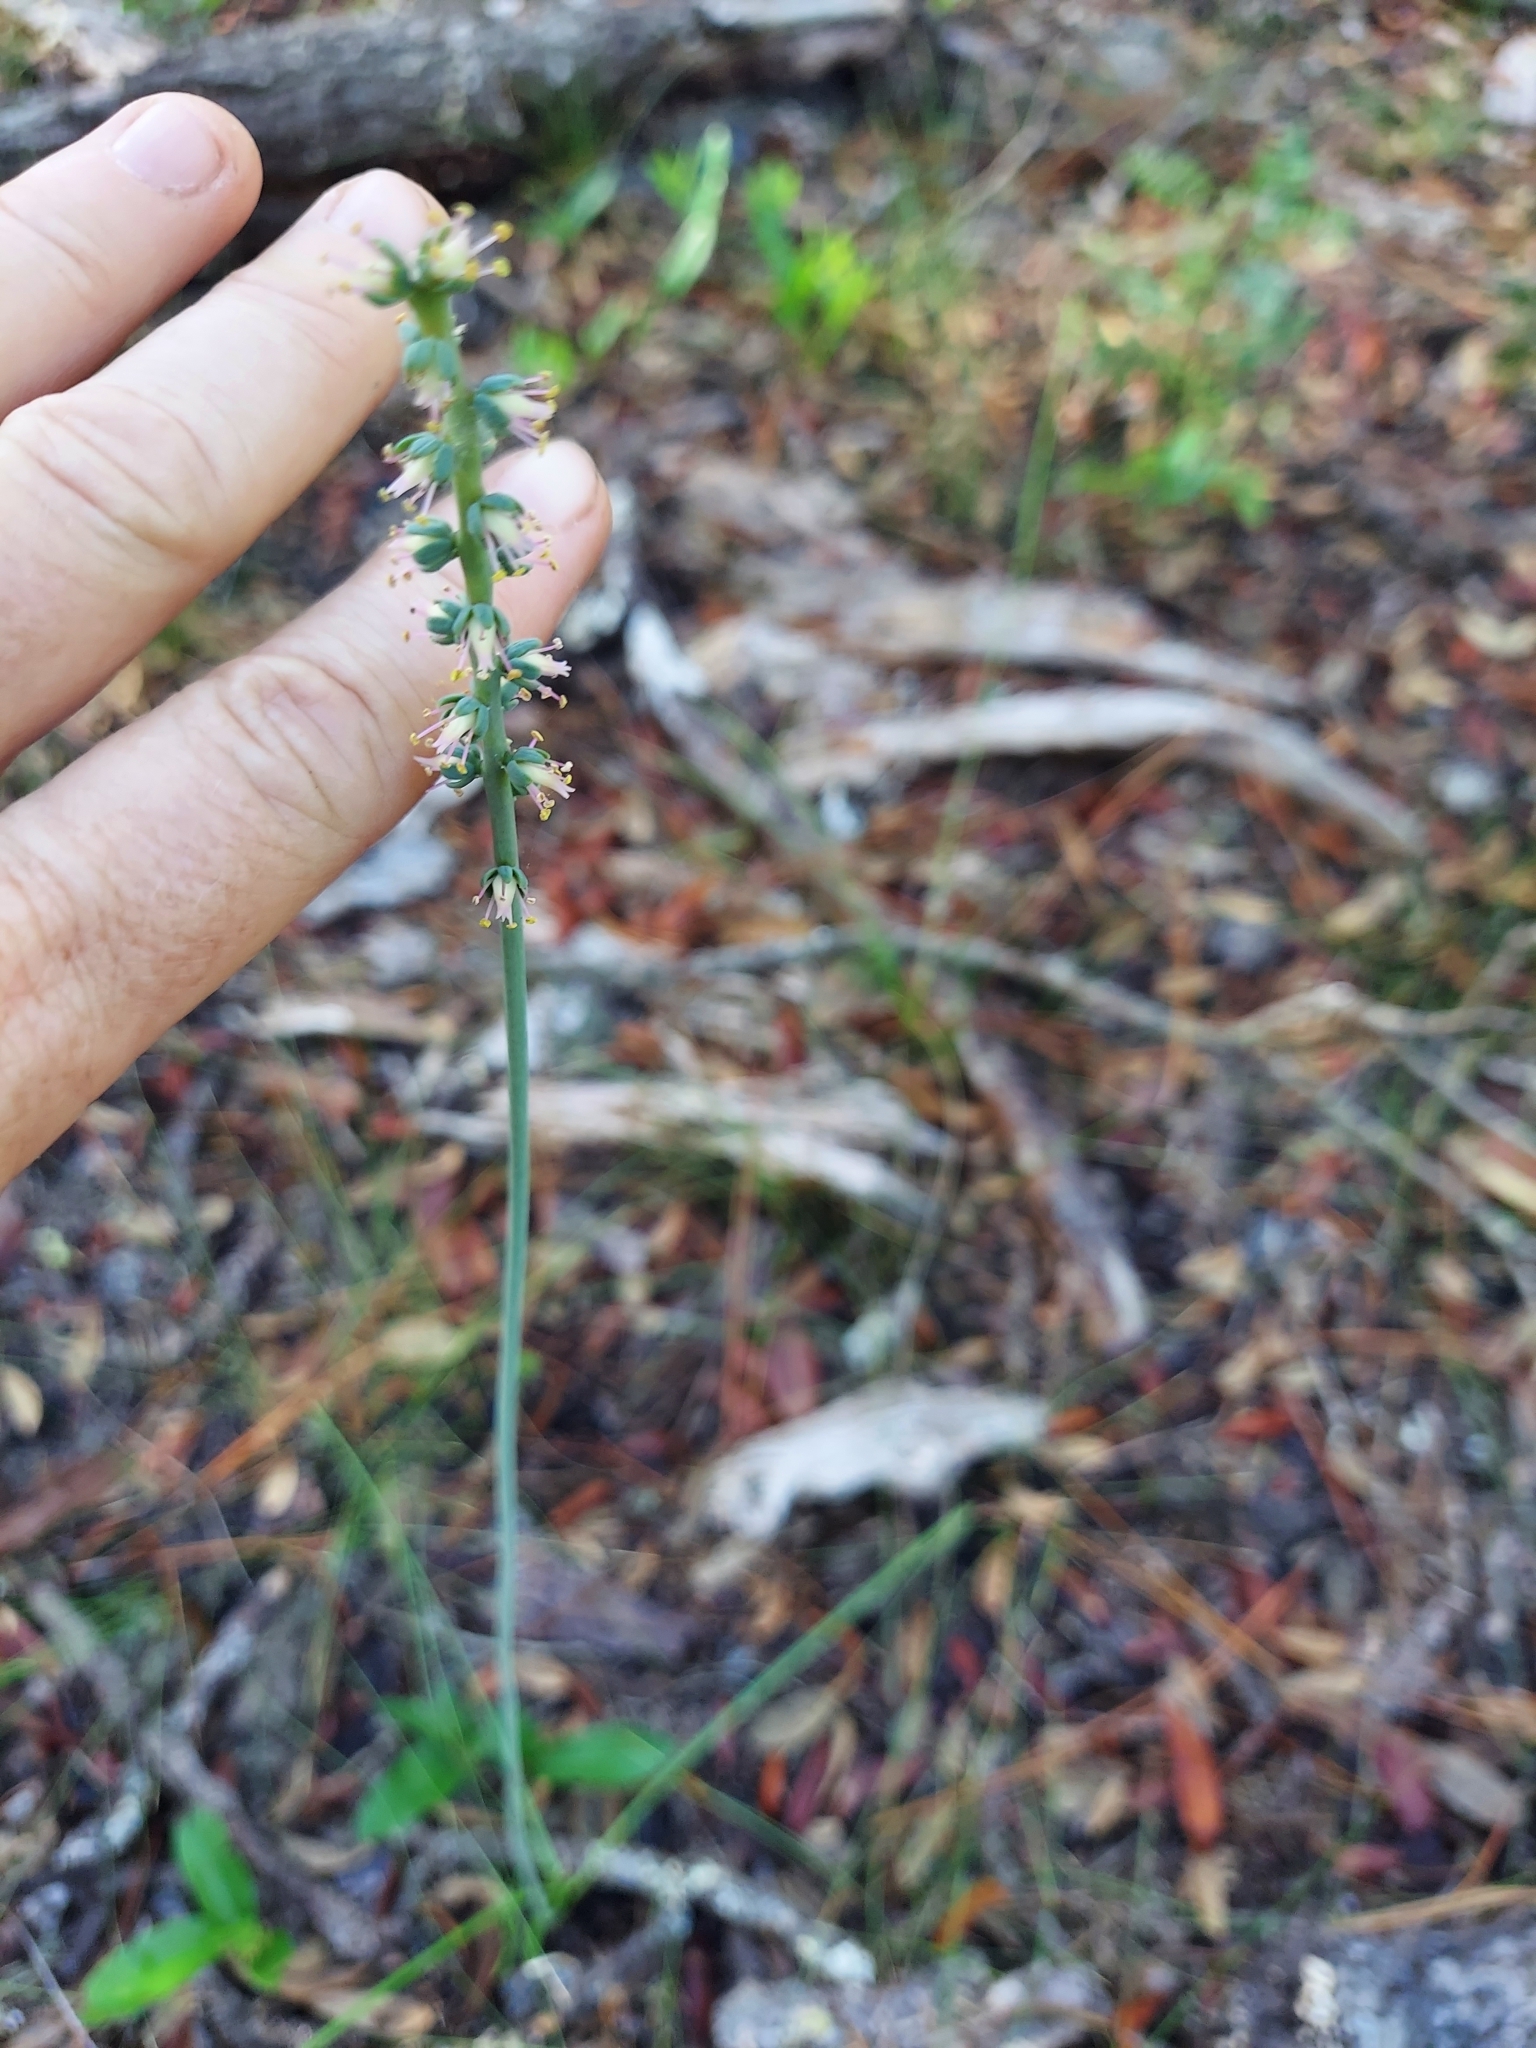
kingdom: Plantae
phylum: Tracheophyta
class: Liliopsida
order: Liliales
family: Melanthiaceae
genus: Schoenocaulon
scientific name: Schoenocaulon dubium
